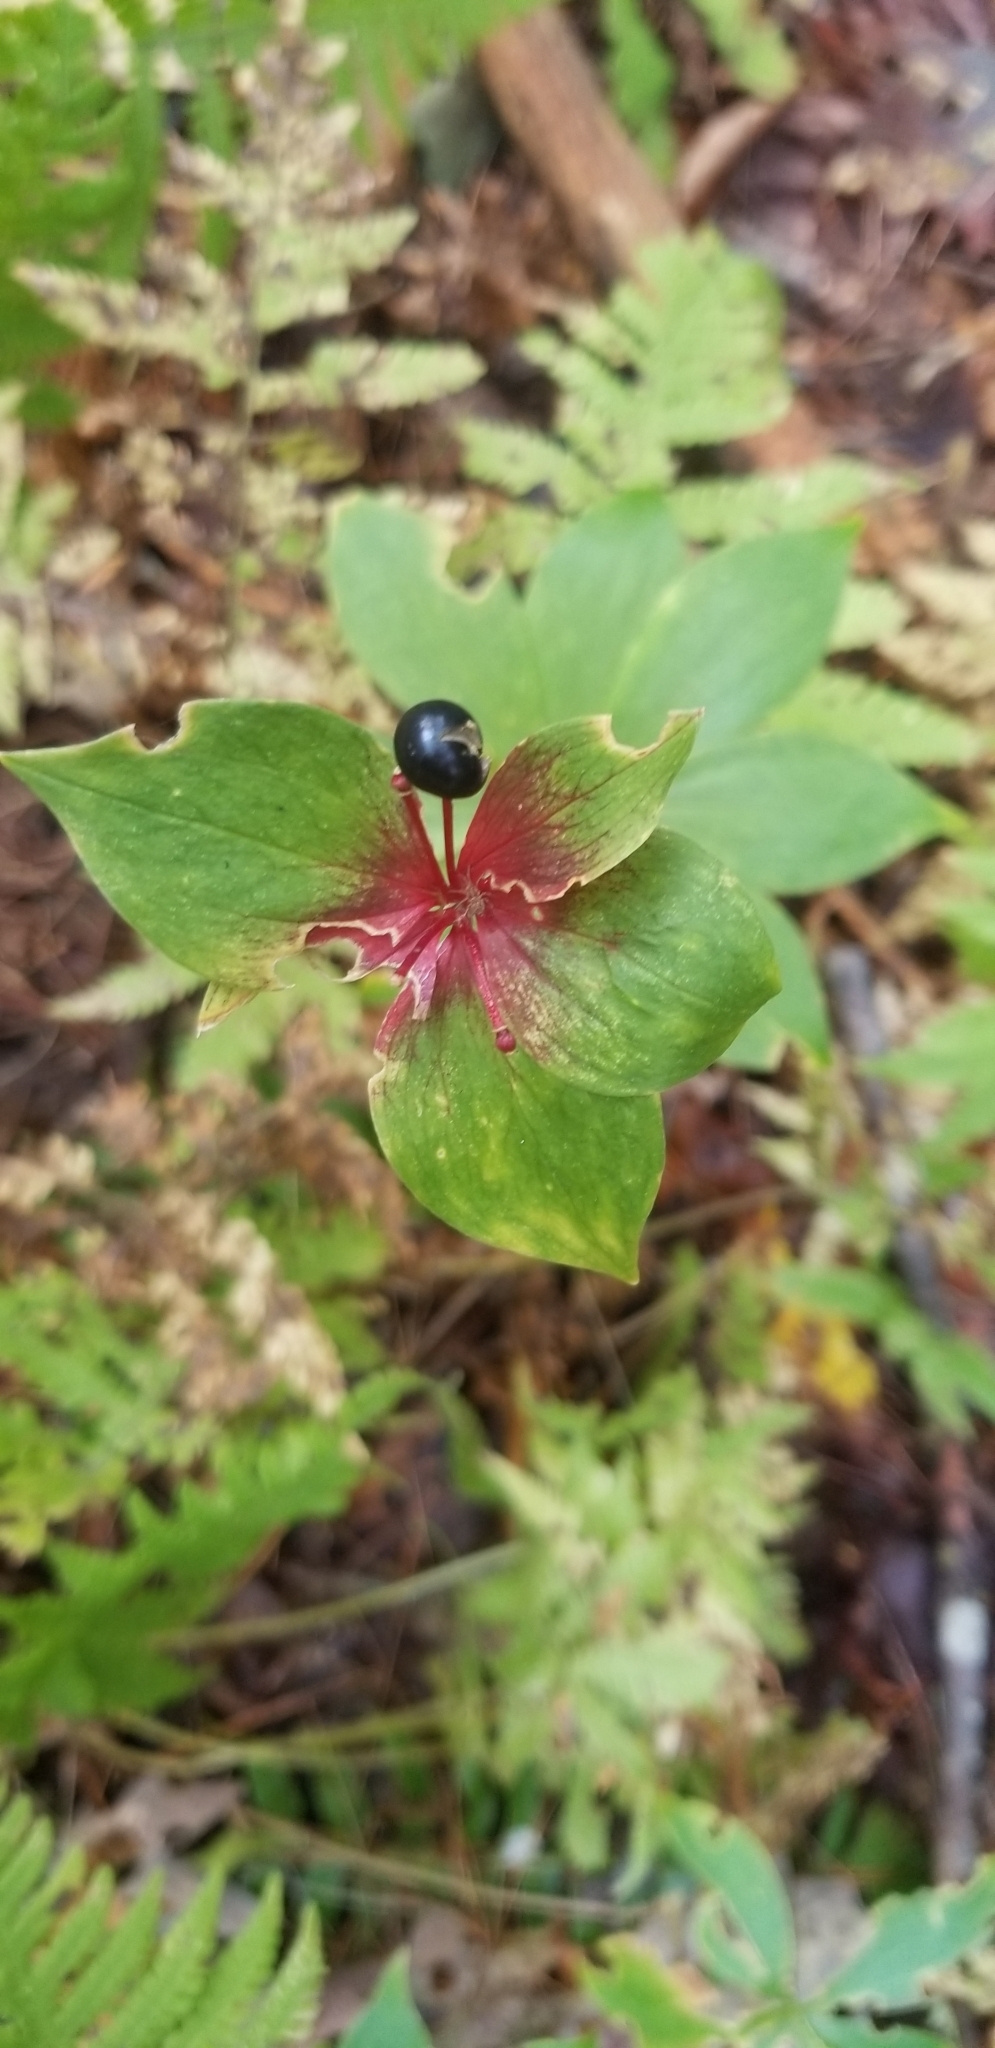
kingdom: Plantae
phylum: Tracheophyta
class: Liliopsida
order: Liliales
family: Liliaceae
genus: Medeola
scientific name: Medeola virginiana
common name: Indian cucumber-root
